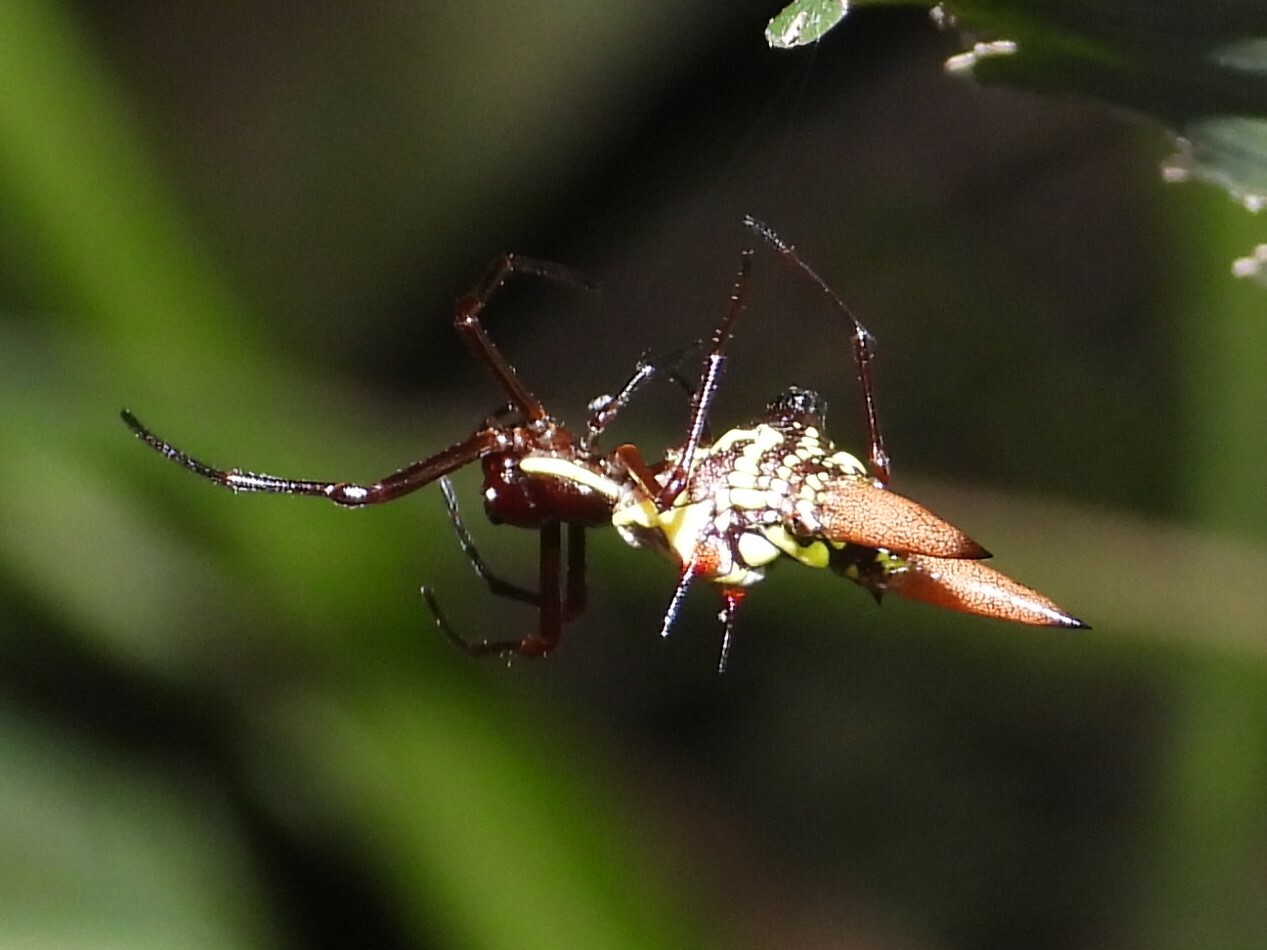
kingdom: Animalia
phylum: Arthropoda
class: Arachnida
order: Araneae
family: Araneidae
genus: Micrathena
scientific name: Micrathena sexspinosa
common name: Orb weavers
